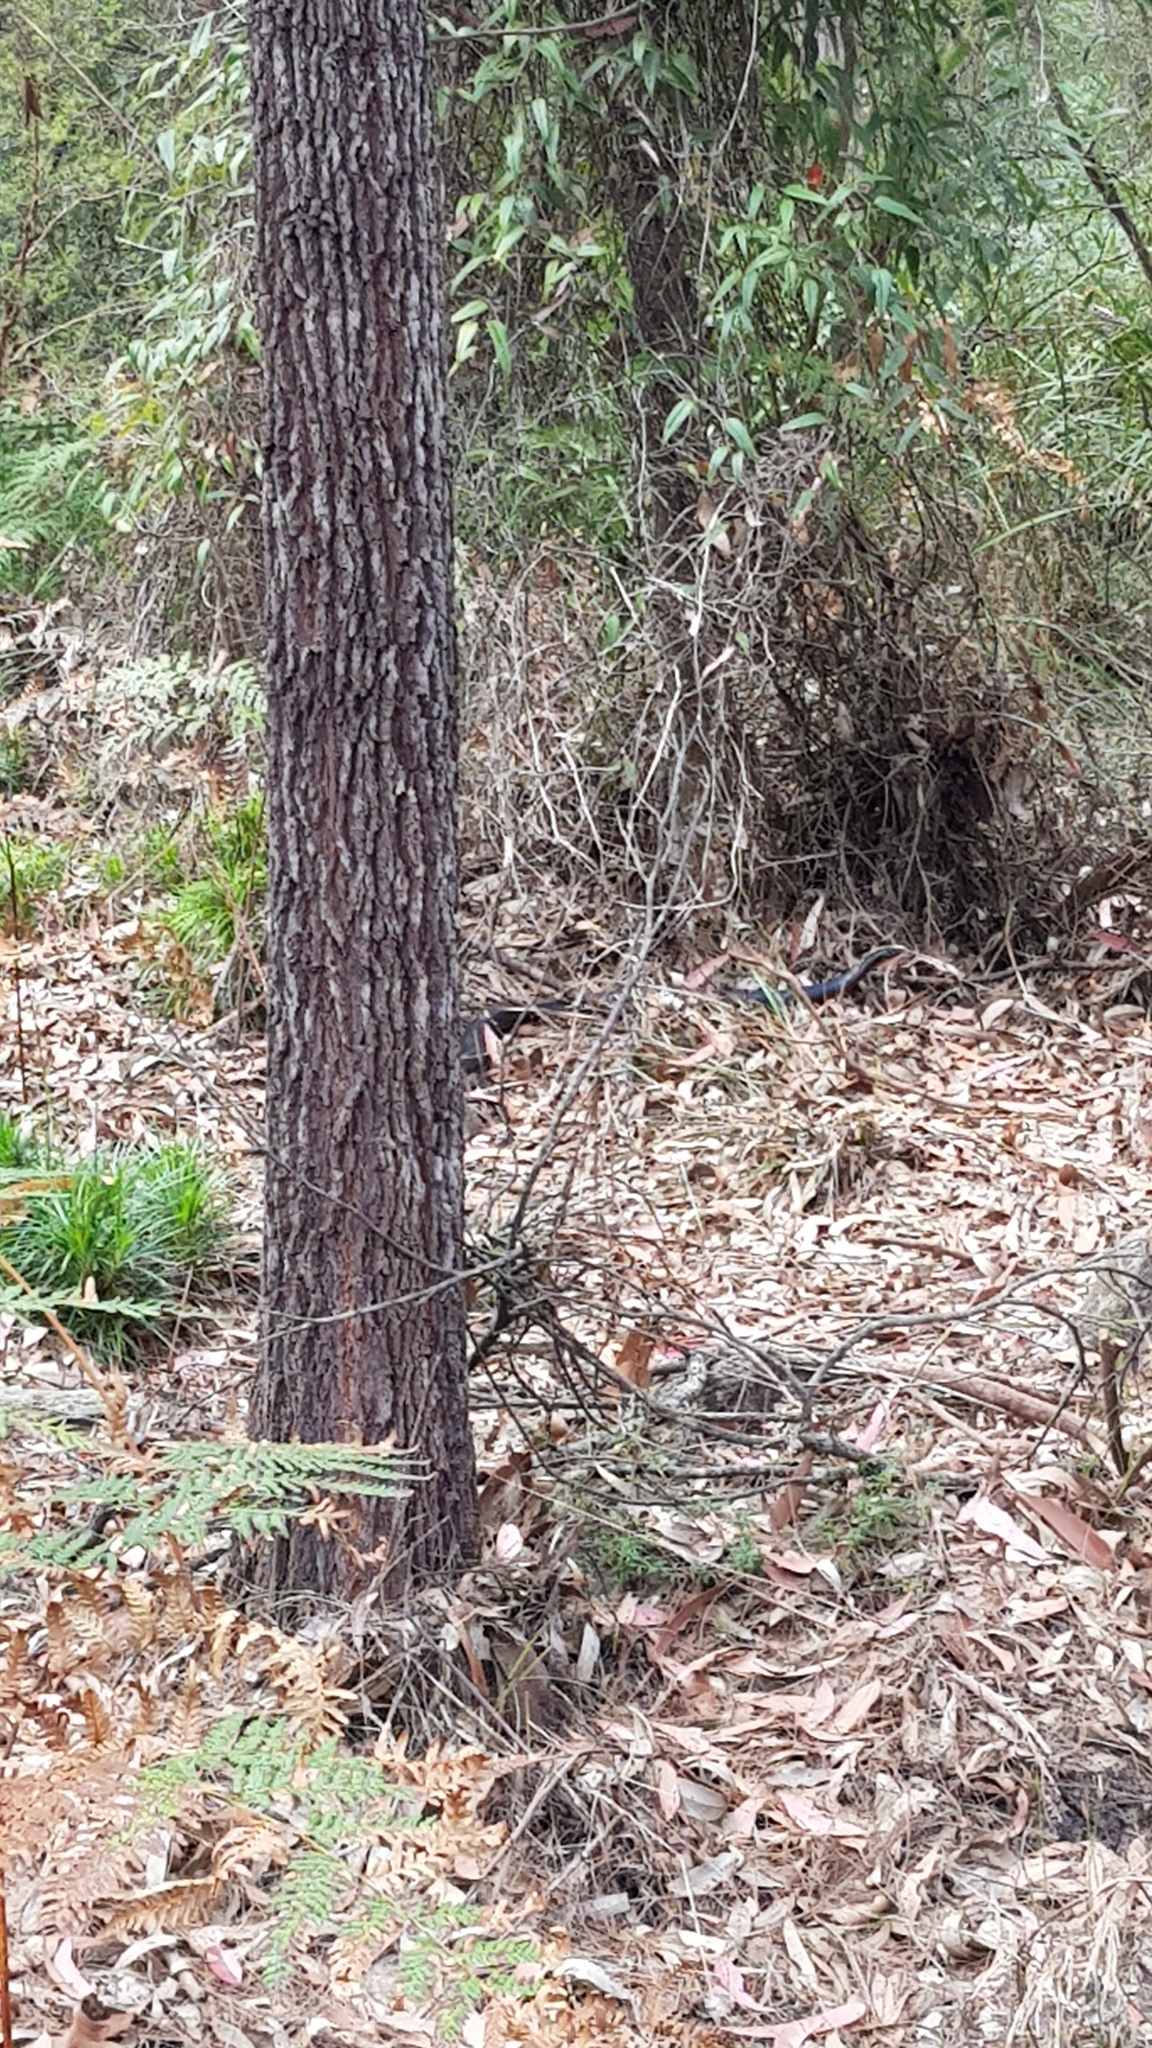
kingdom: Animalia
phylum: Chordata
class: Squamata
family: Elapidae
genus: Pseudechis
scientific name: Pseudechis porphyriacus
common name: Australian black snake
